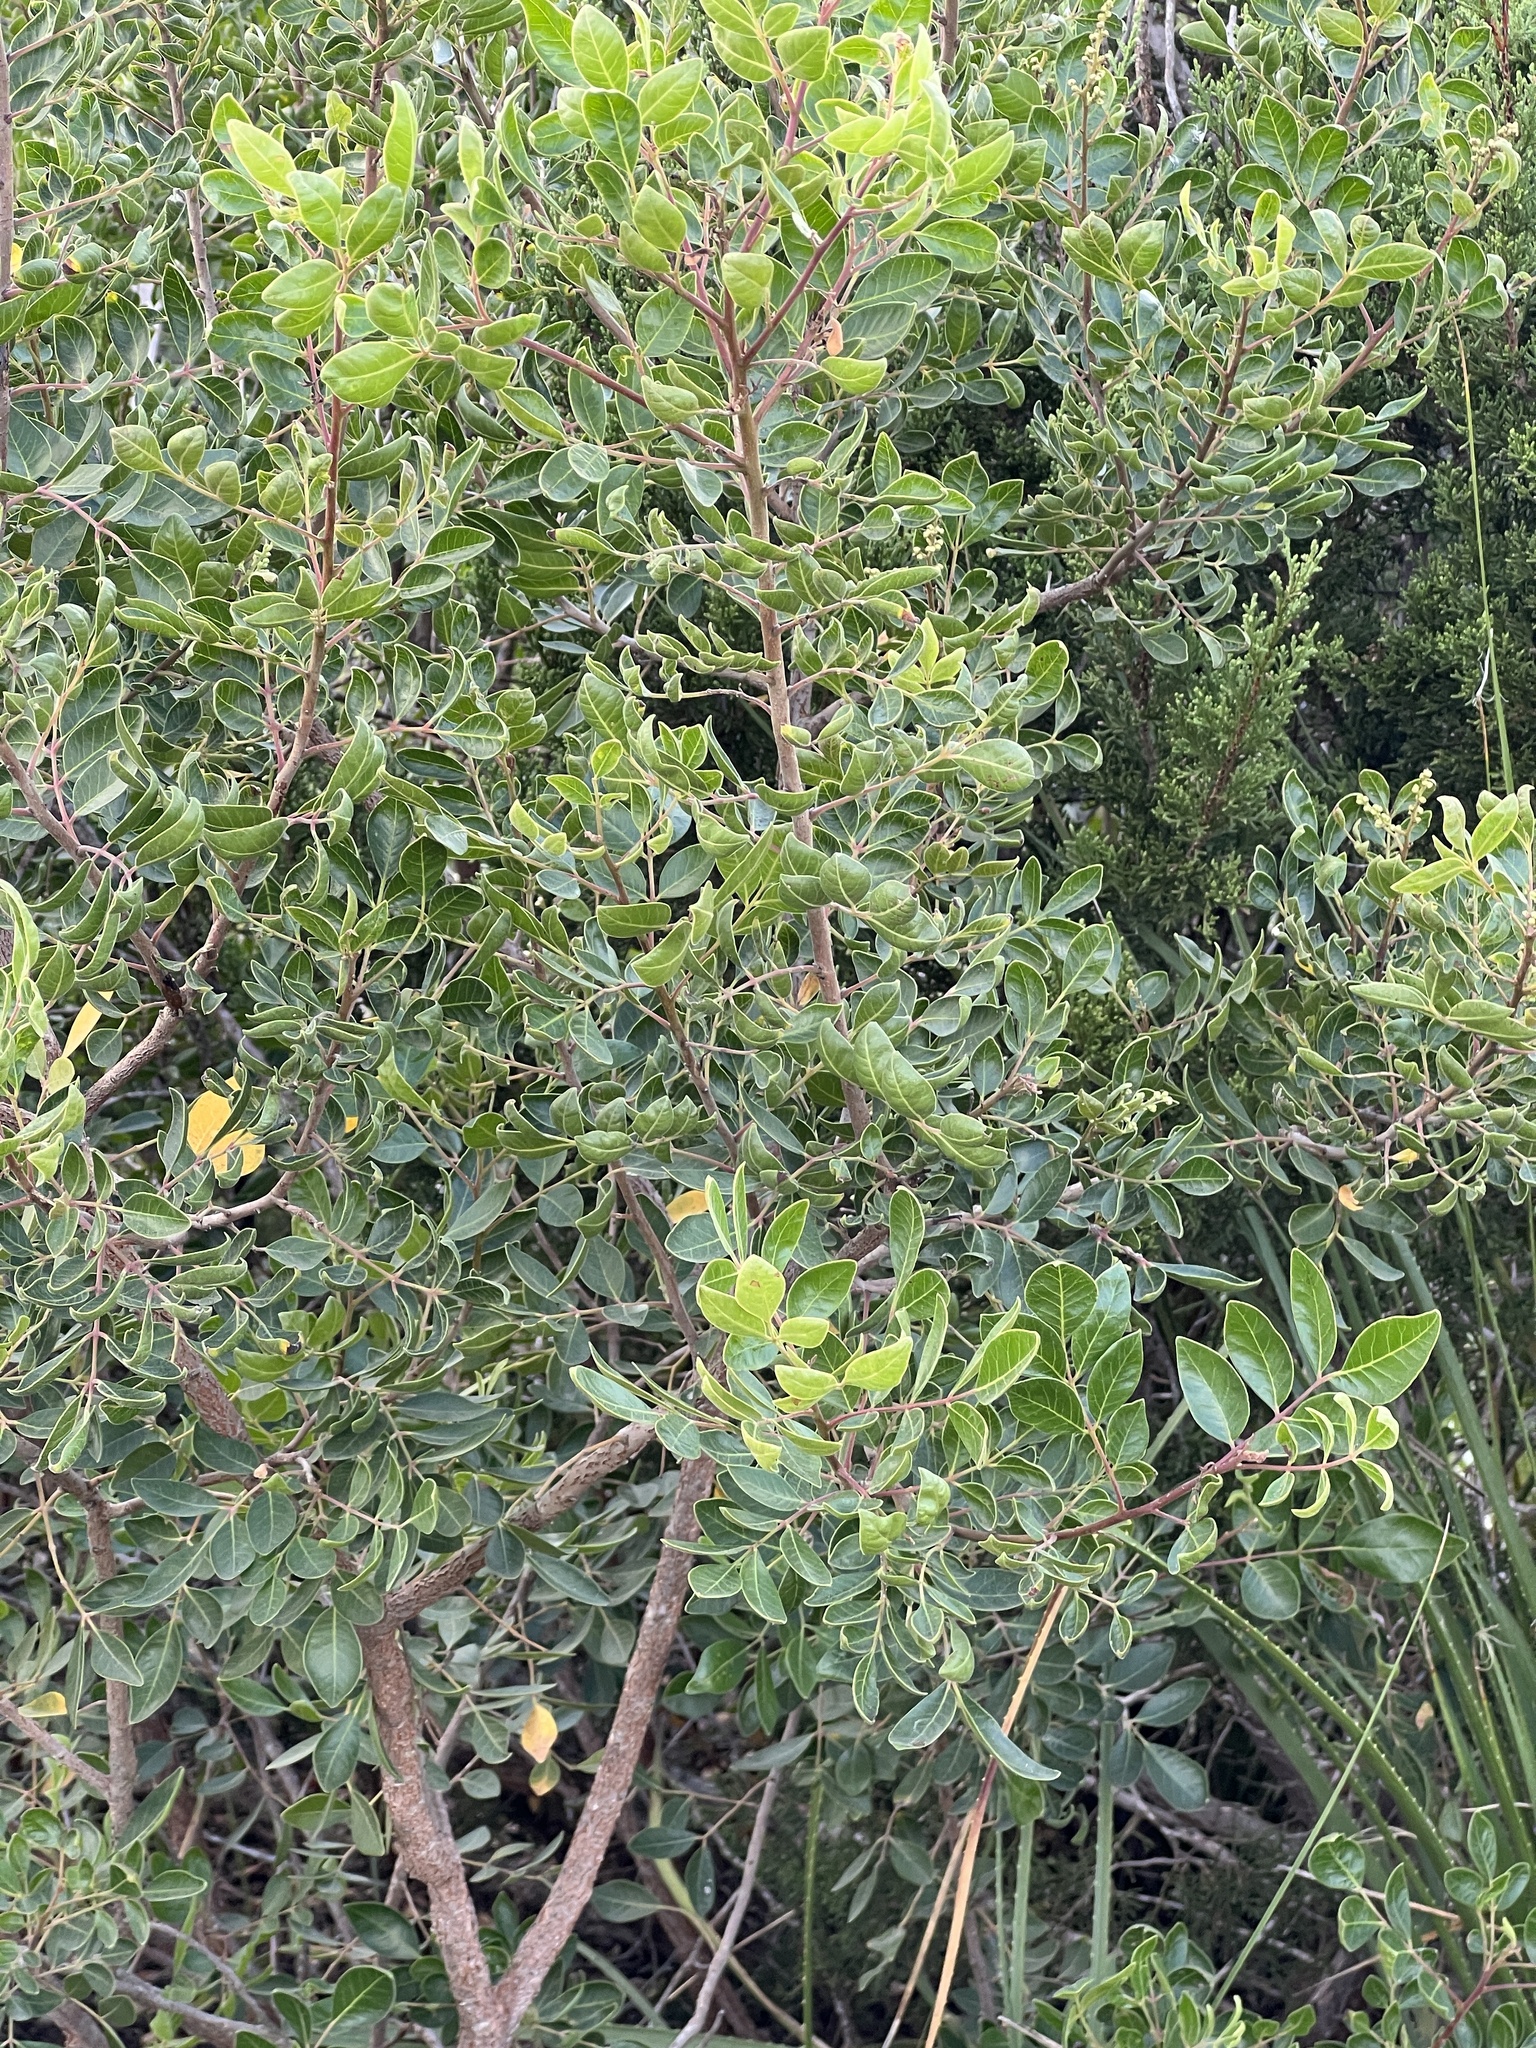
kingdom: Plantae
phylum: Tracheophyta
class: Magnoliopsida
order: Sapindales
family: Anacardiaceae
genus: Rhus
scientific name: Rhus virens
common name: Evergreen sumac
